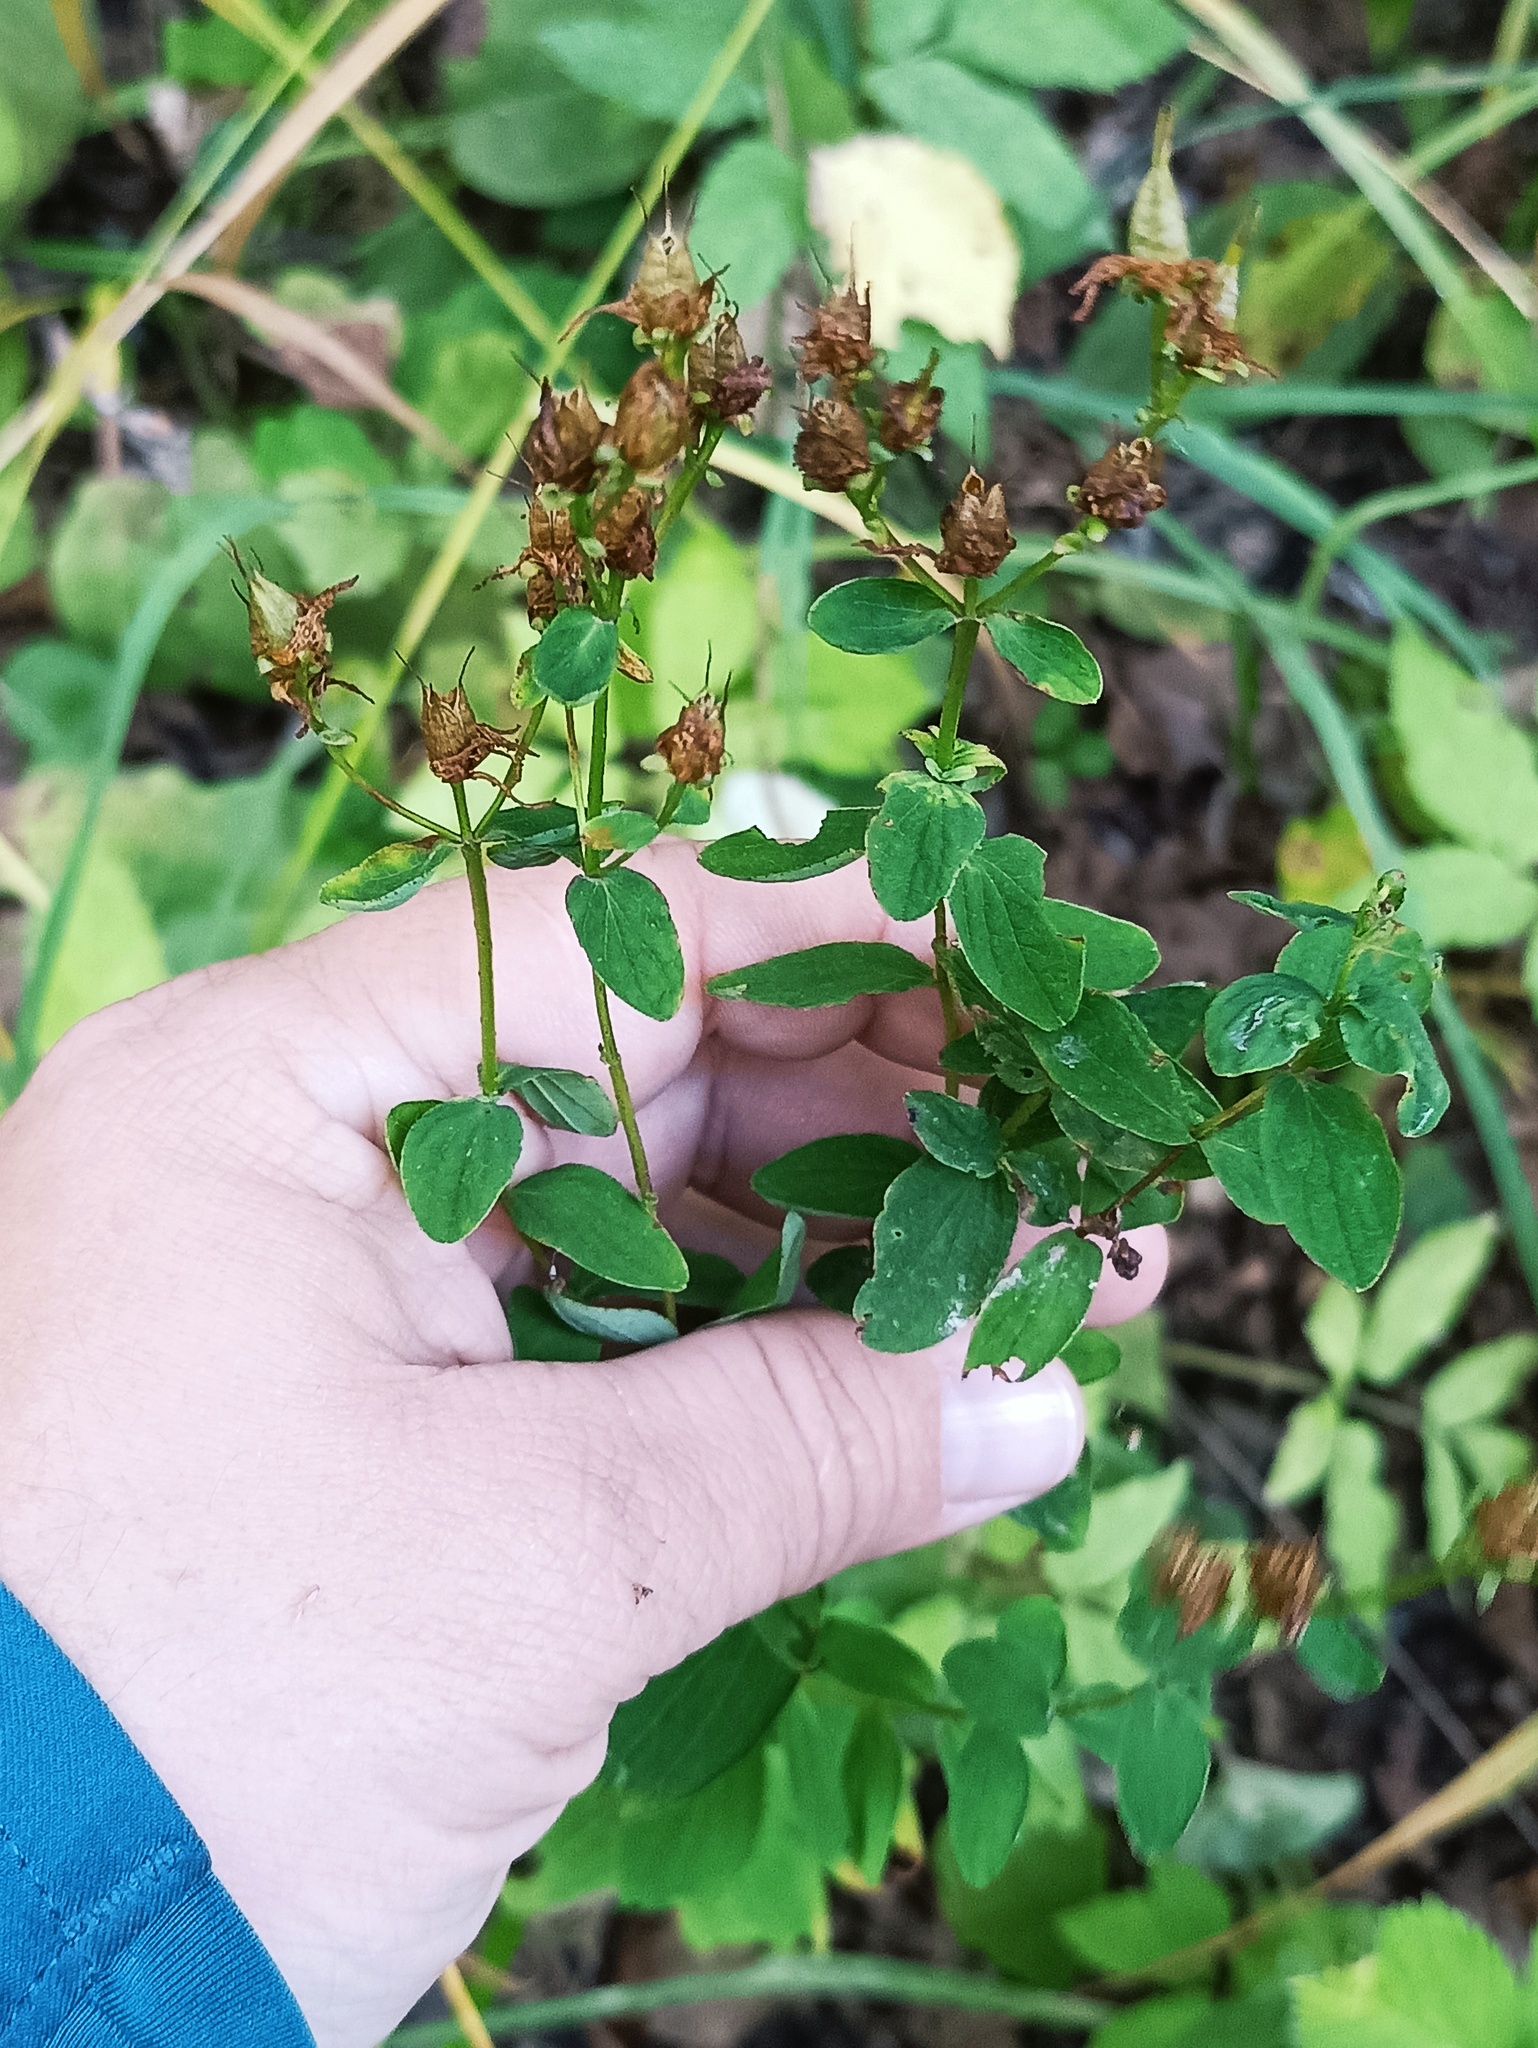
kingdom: Plantae
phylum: Tracheophyta
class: Magnoliopsida
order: Malpighiales
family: Hypericaceae
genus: Hypericum
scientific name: Hypericum maculatum
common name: Imperforate st. john's-wort
